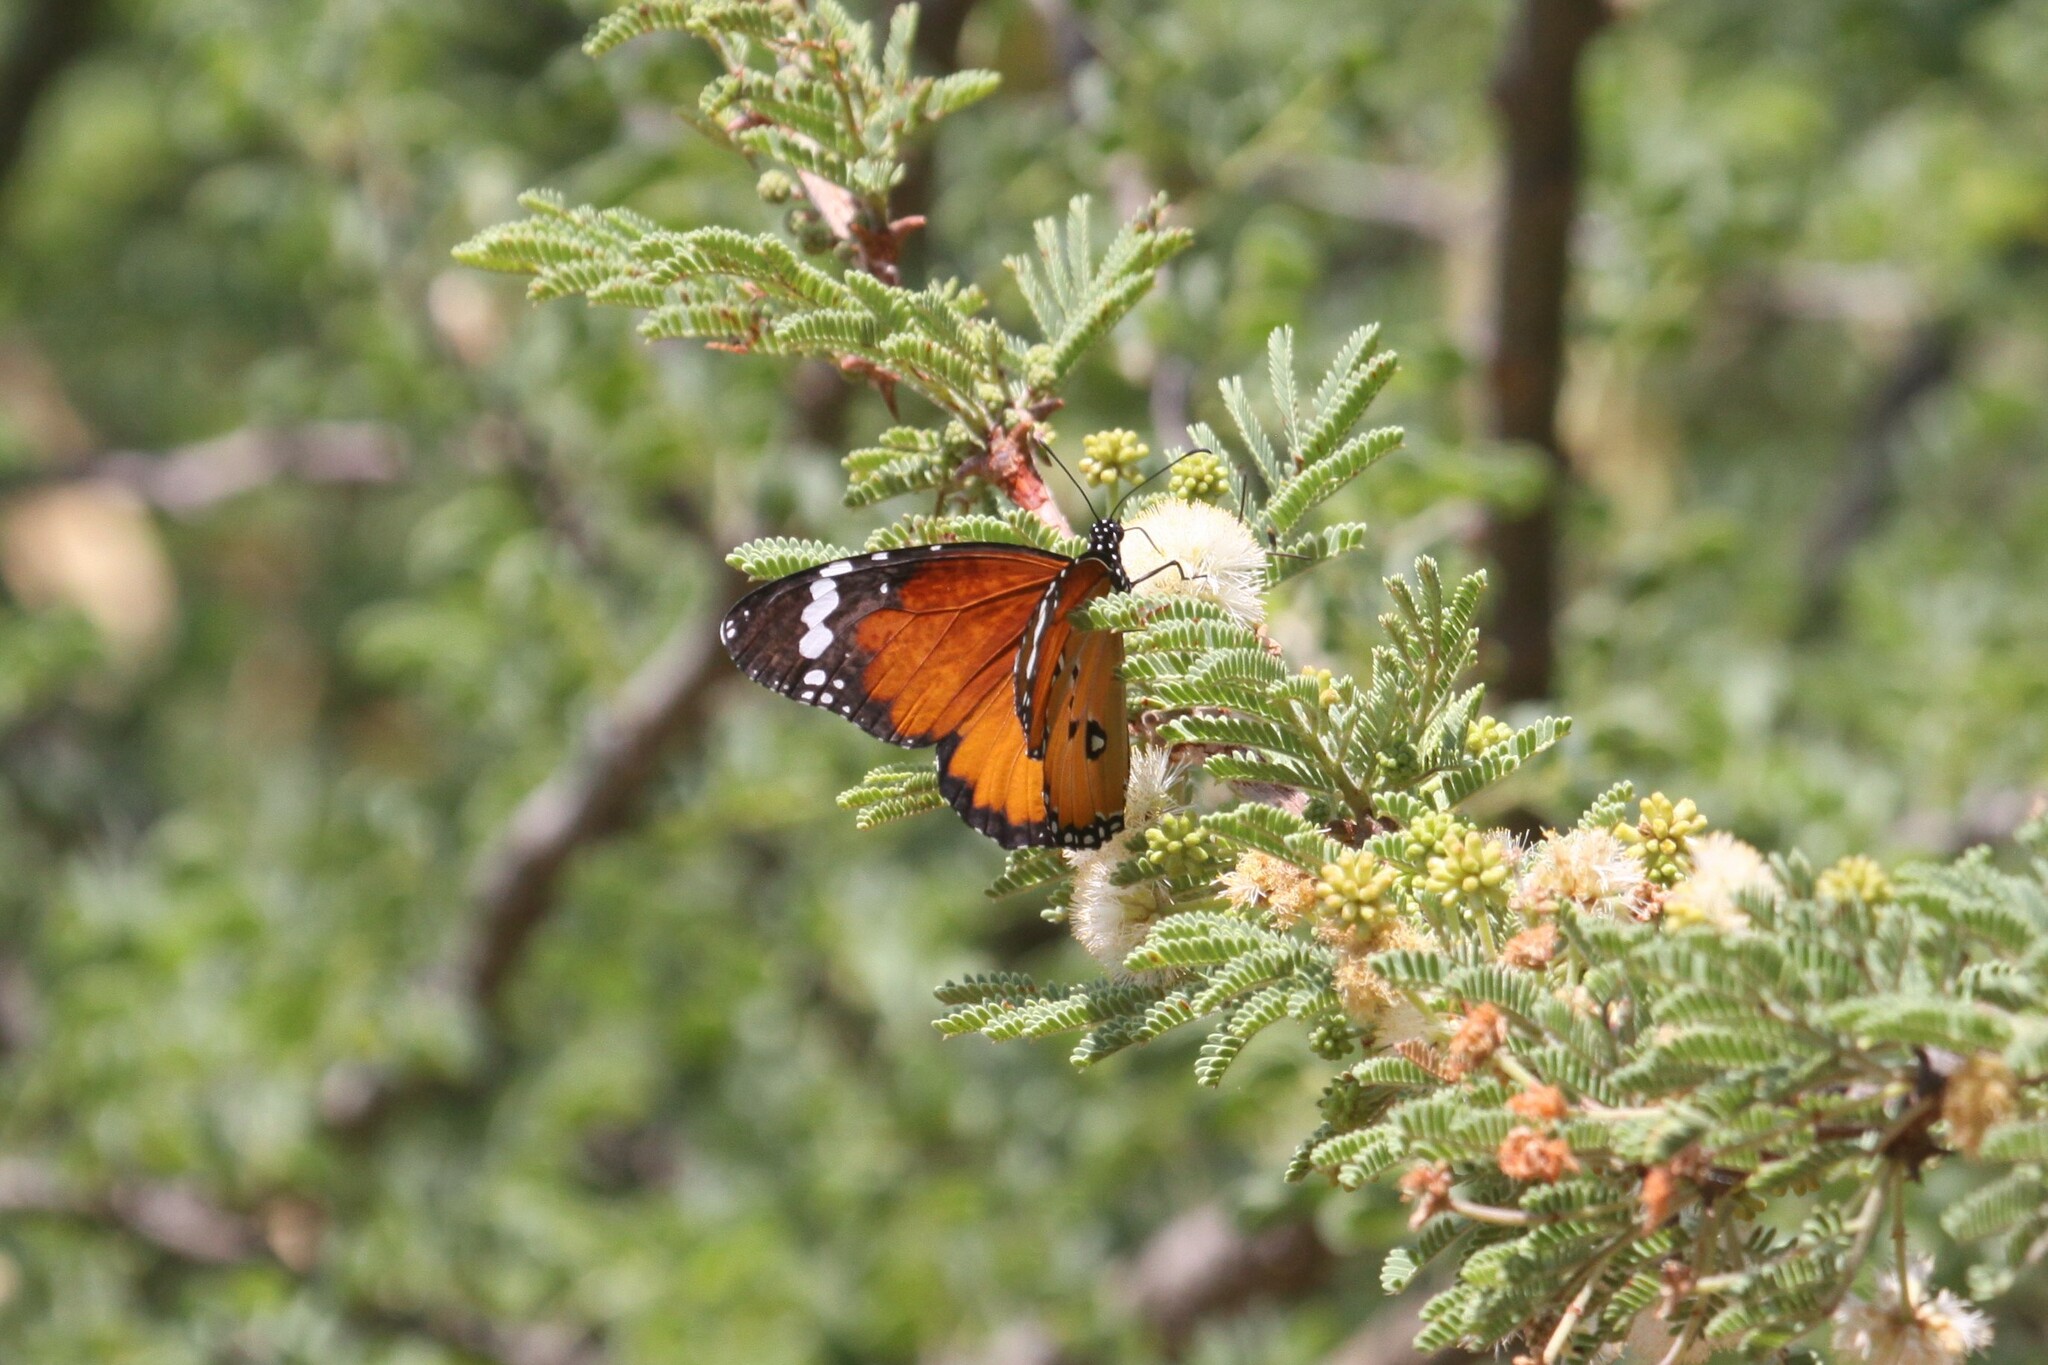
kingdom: Animalia
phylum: Arthropoda
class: Insecta
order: Lepidoptera
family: Nymphalidae
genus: Danaus
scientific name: Danaus chrysippus
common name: Plain tiger
